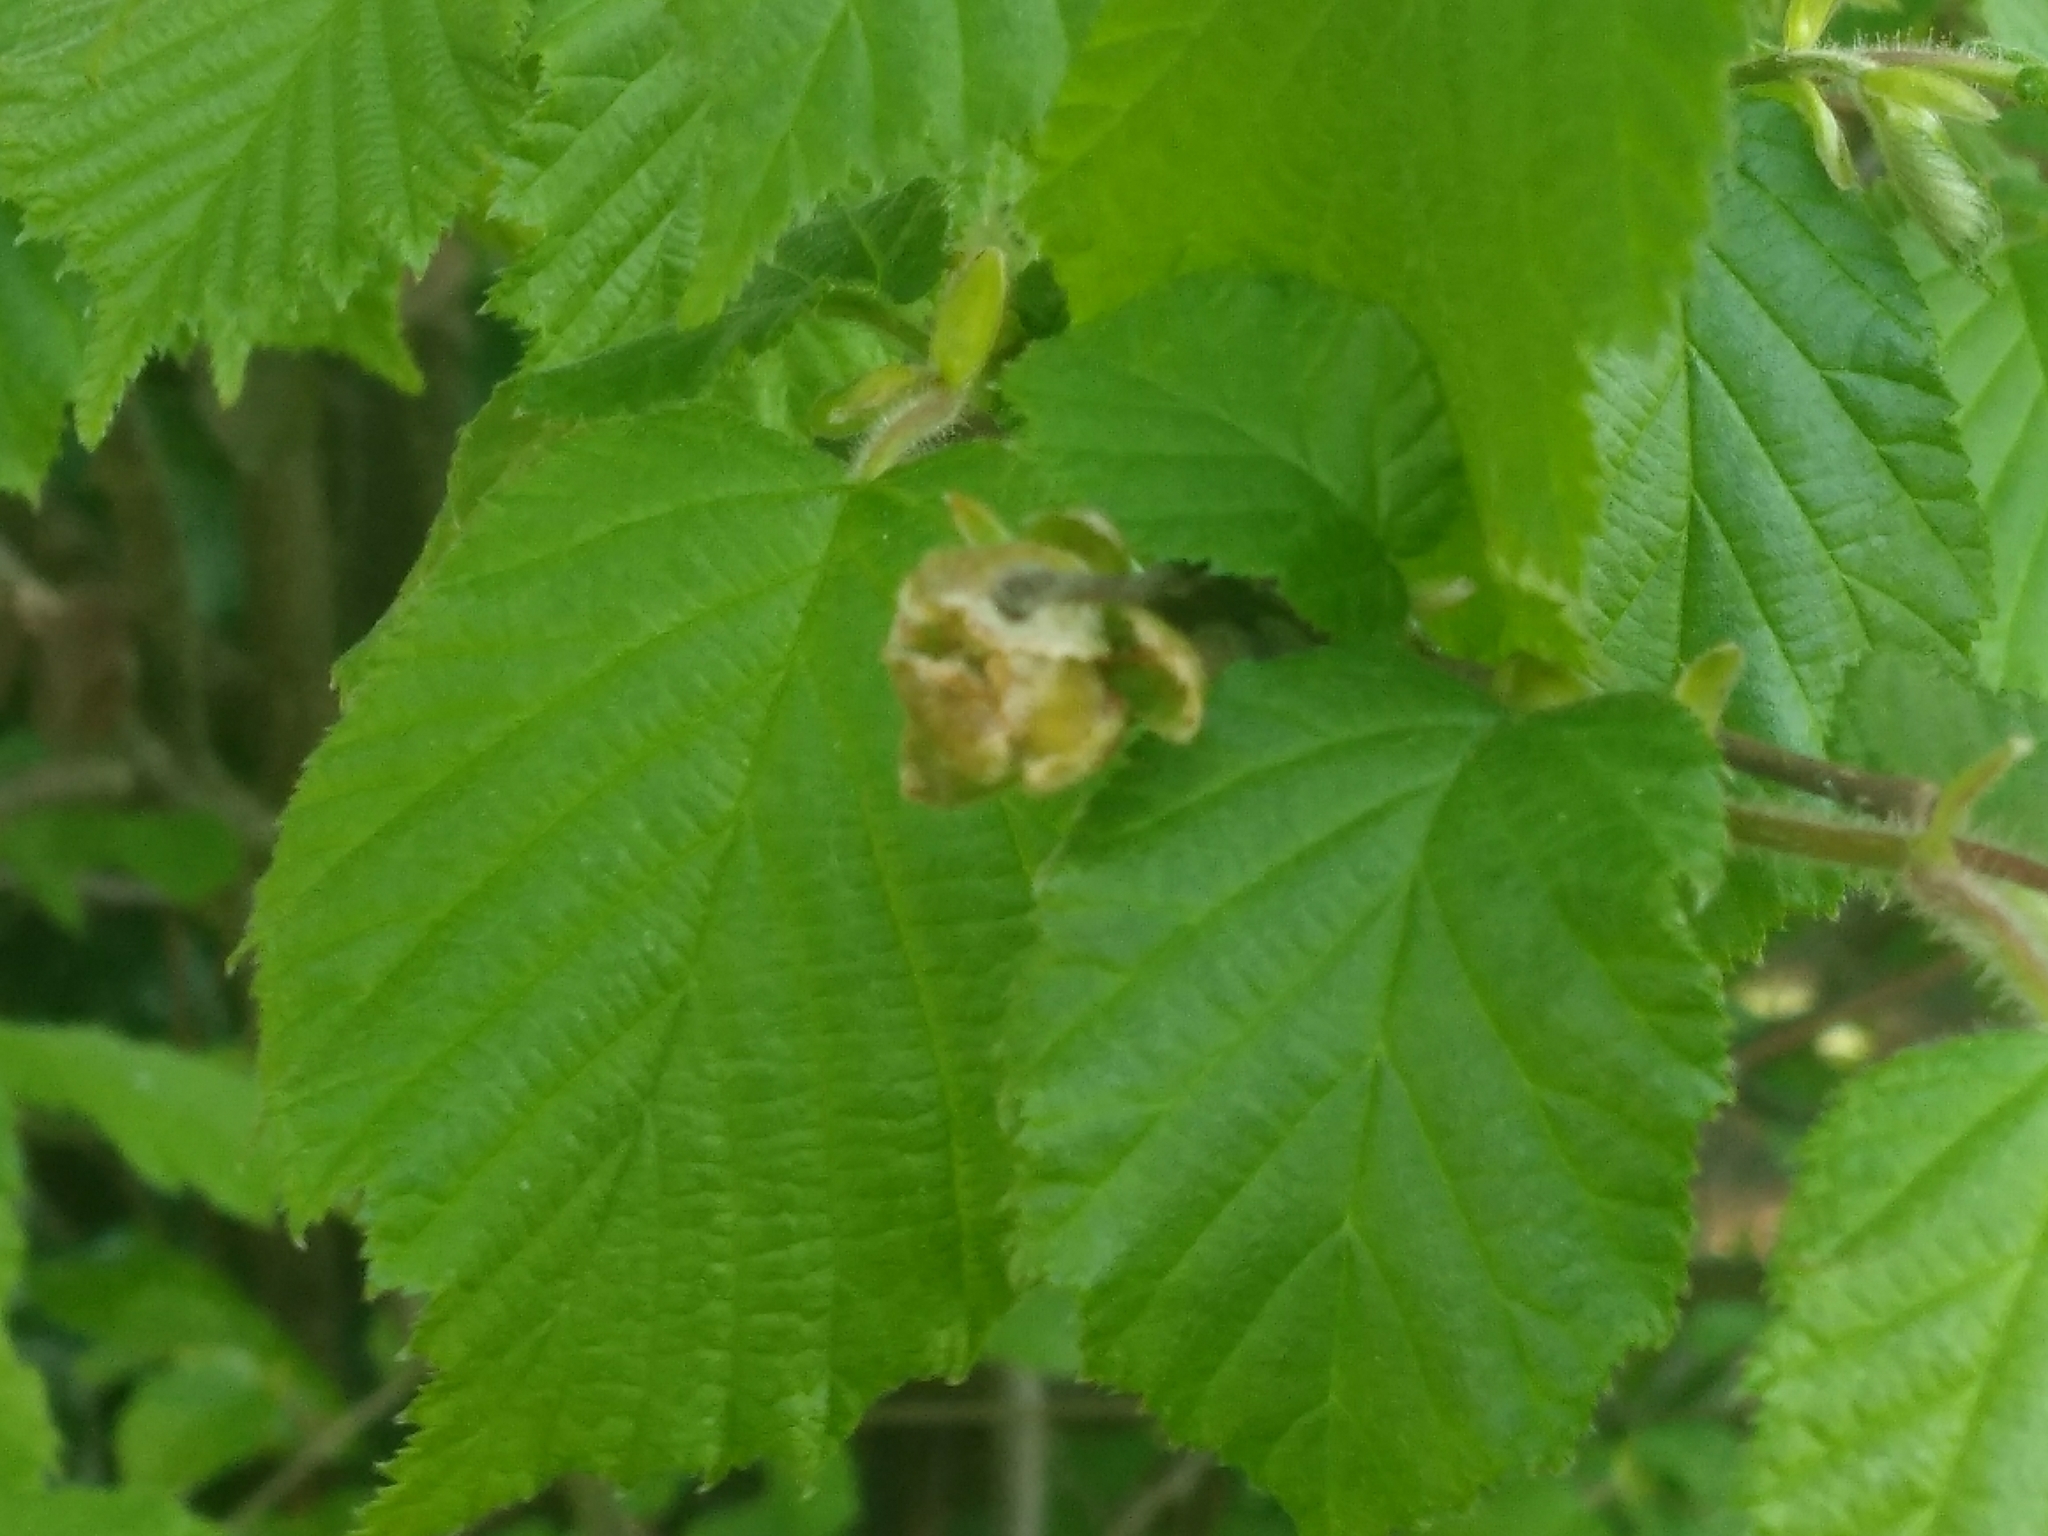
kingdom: Animalia
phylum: Arthropoda
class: Arachnida
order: Trombidiformes
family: Phytoptidae
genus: Phytoptus
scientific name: Phytoptus avellanae
